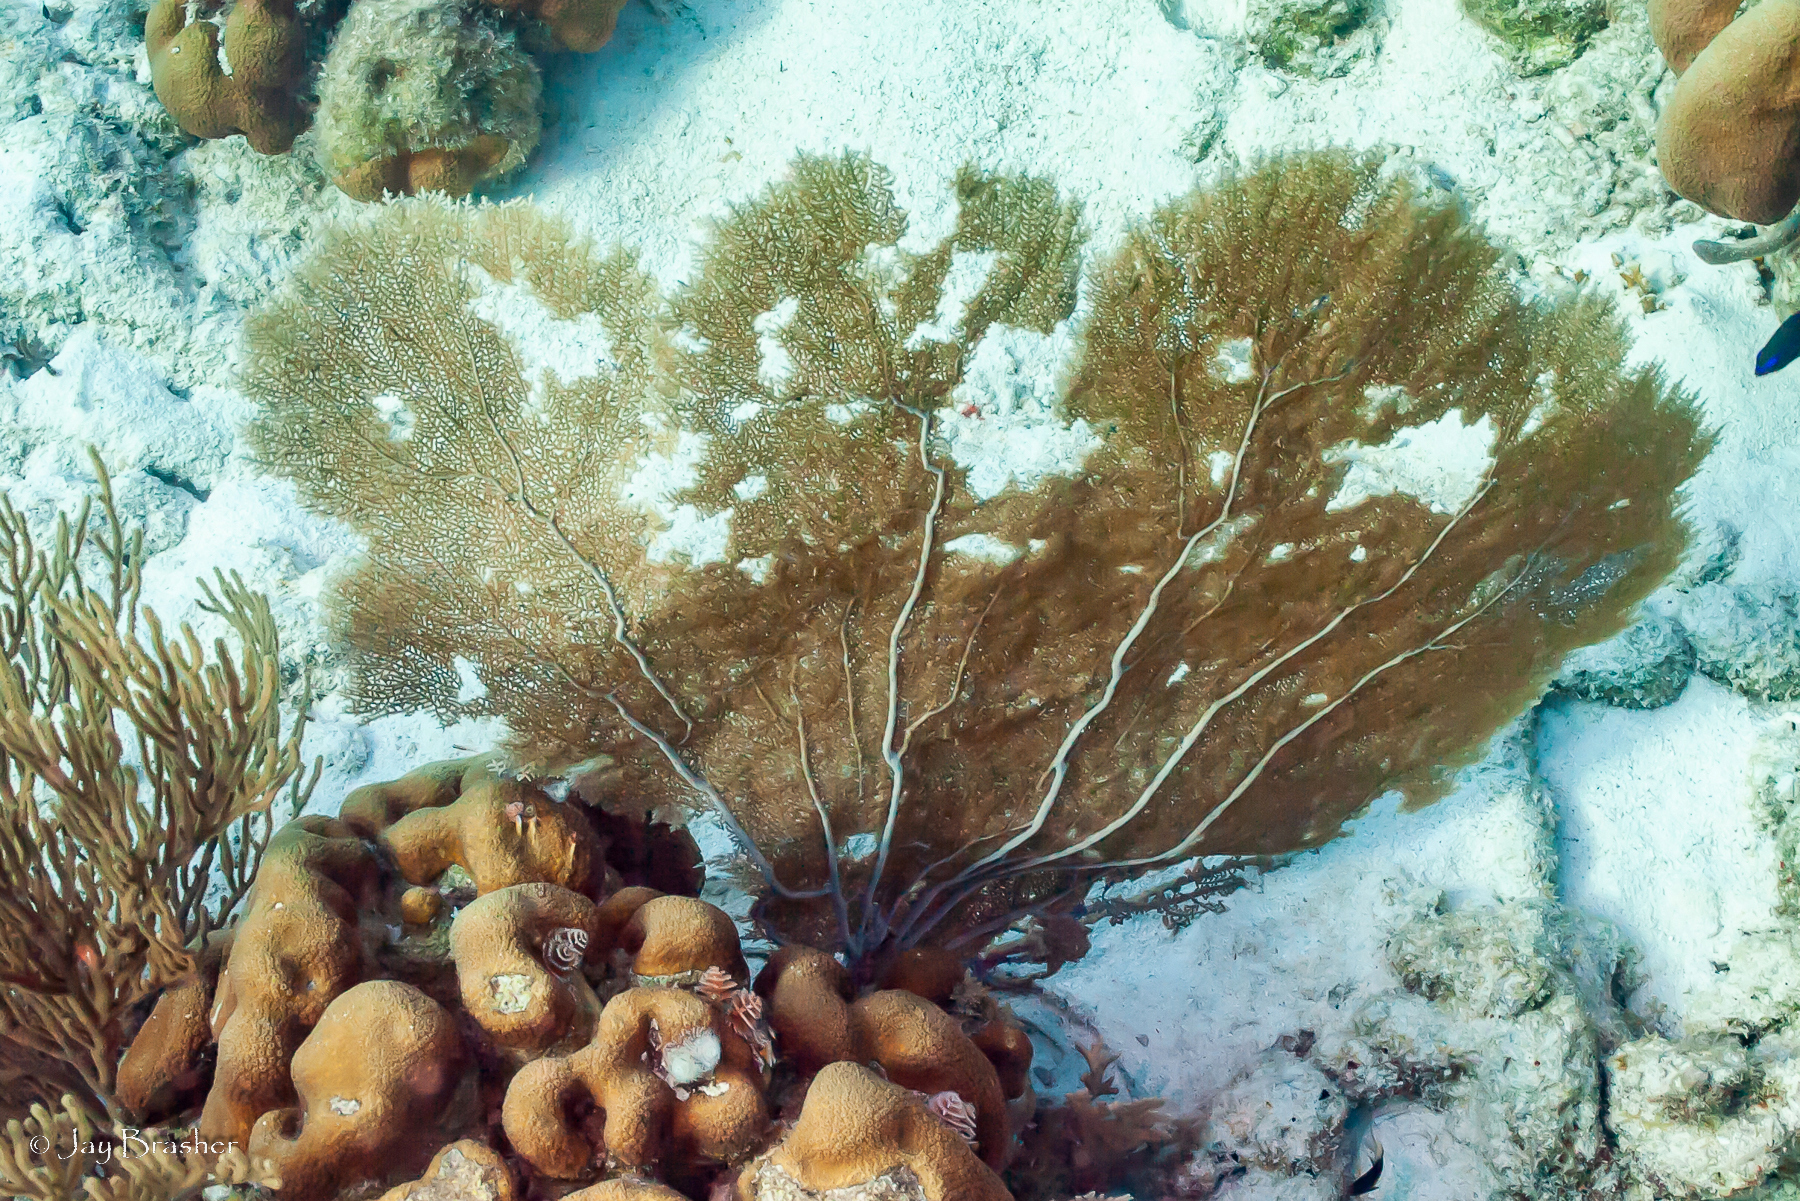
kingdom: Animalia
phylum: Cnidaria
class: Anthozoa
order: Malacalcyonacea
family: Gorgoniidae
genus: Gorgonia
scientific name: Gorgonia ventalina
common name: Common sea fan
